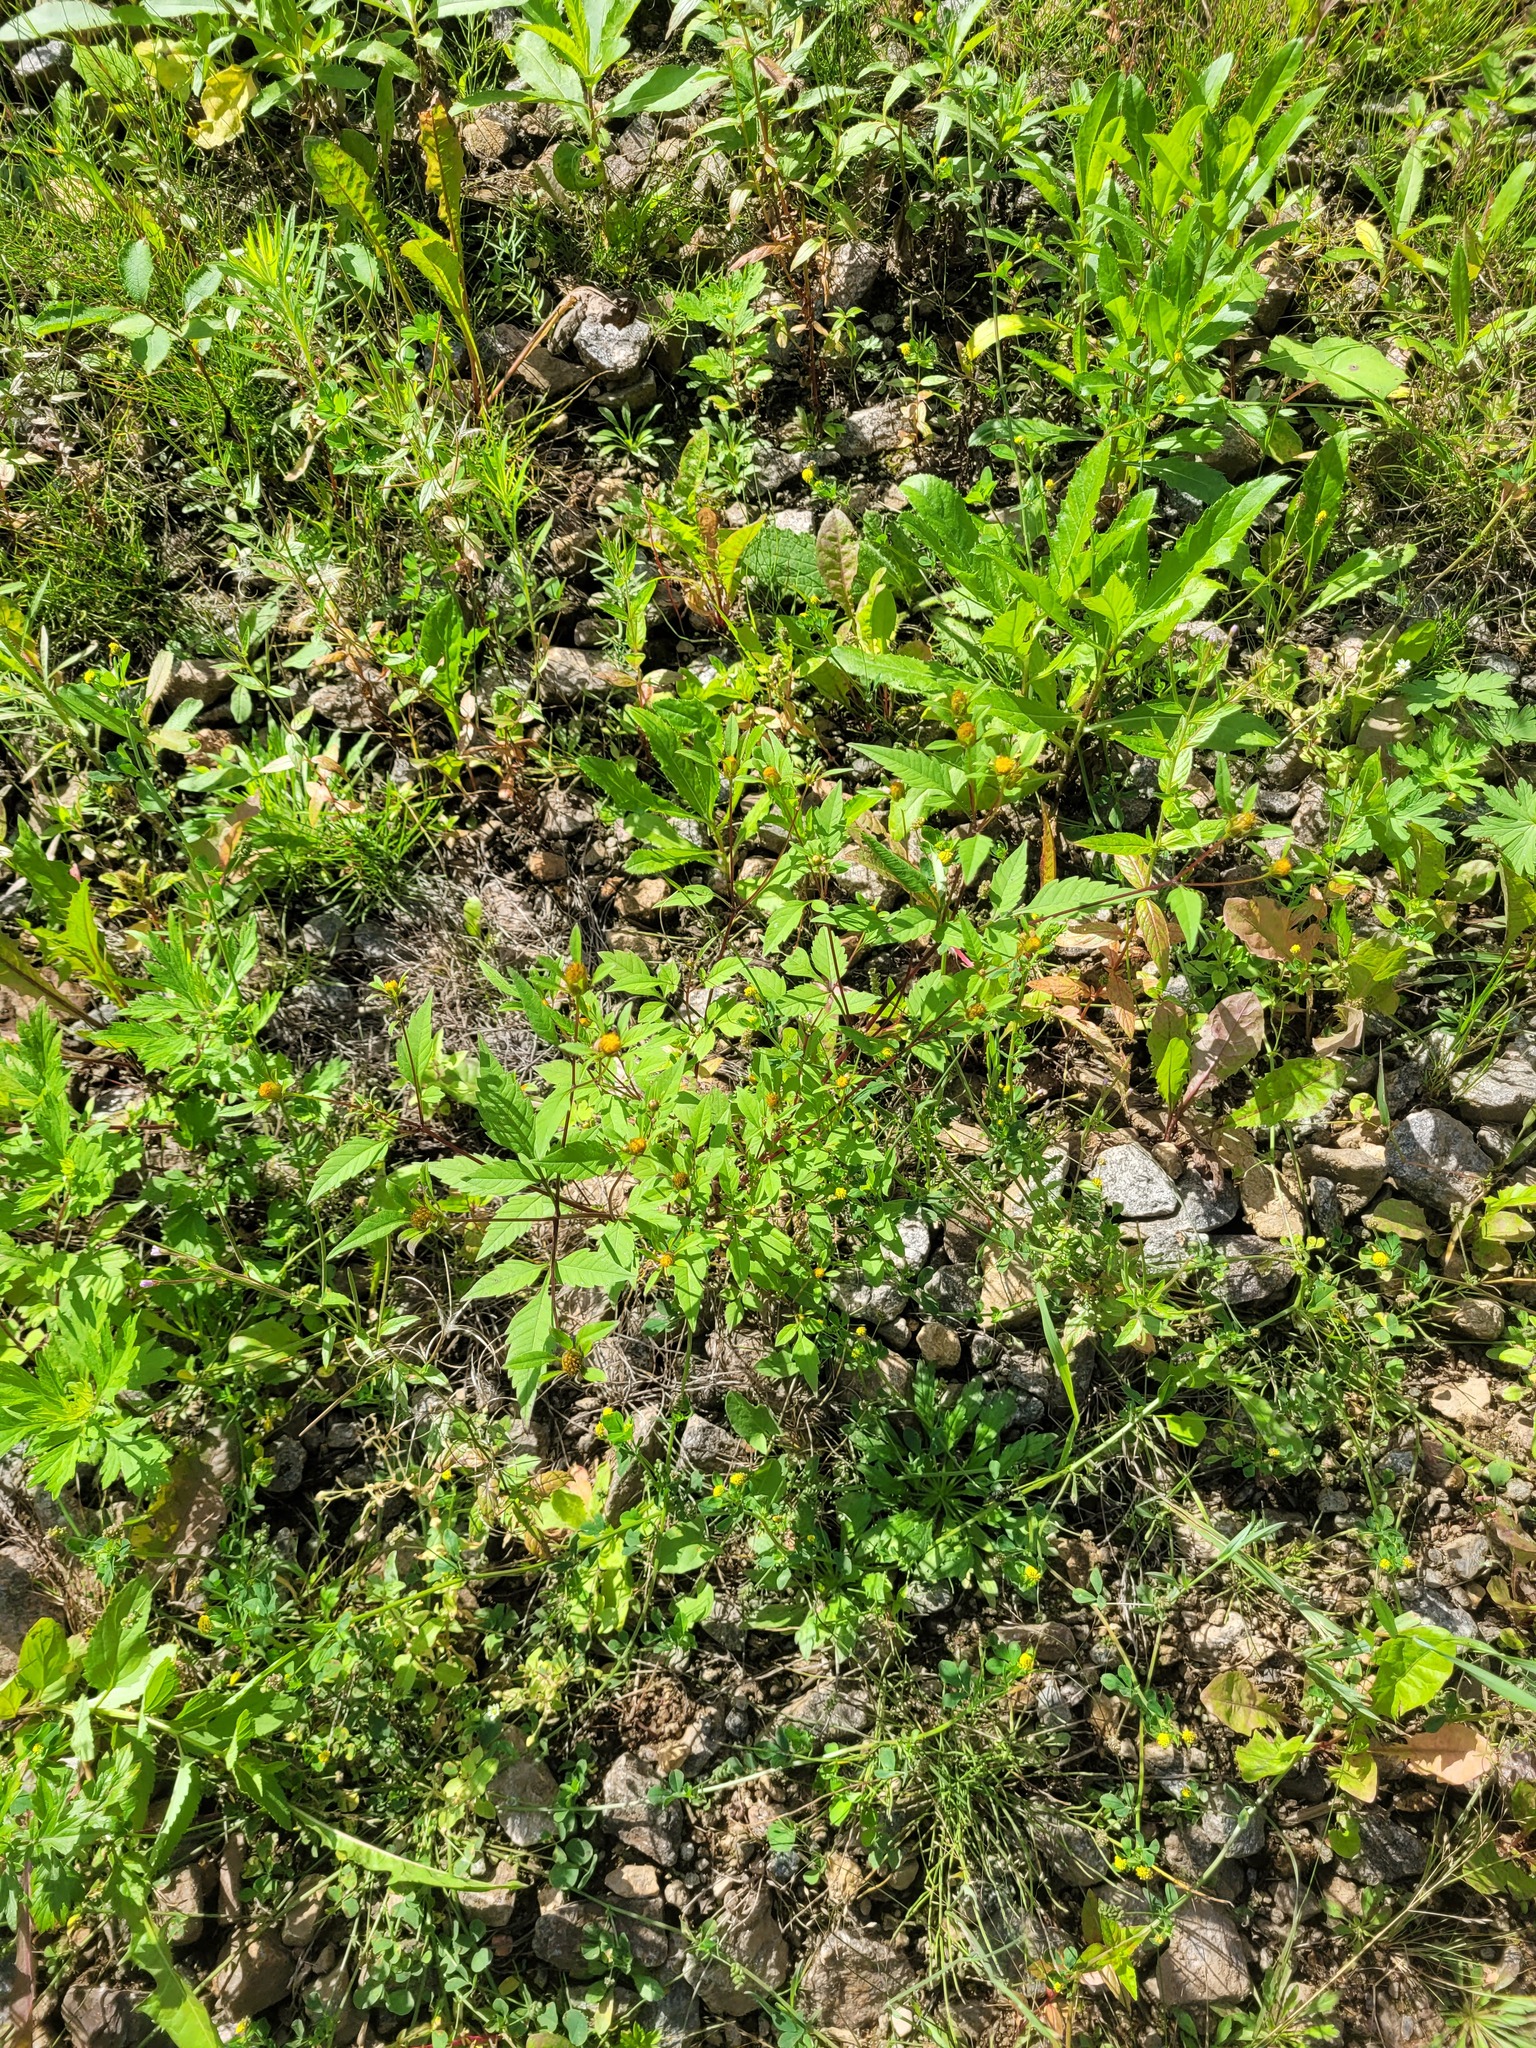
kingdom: Plantae
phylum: Tracheophyta
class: Magnoliopsida
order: Asterales
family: Asteraceae
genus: Bidens
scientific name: Bidens frondosa
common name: Beggarticks
